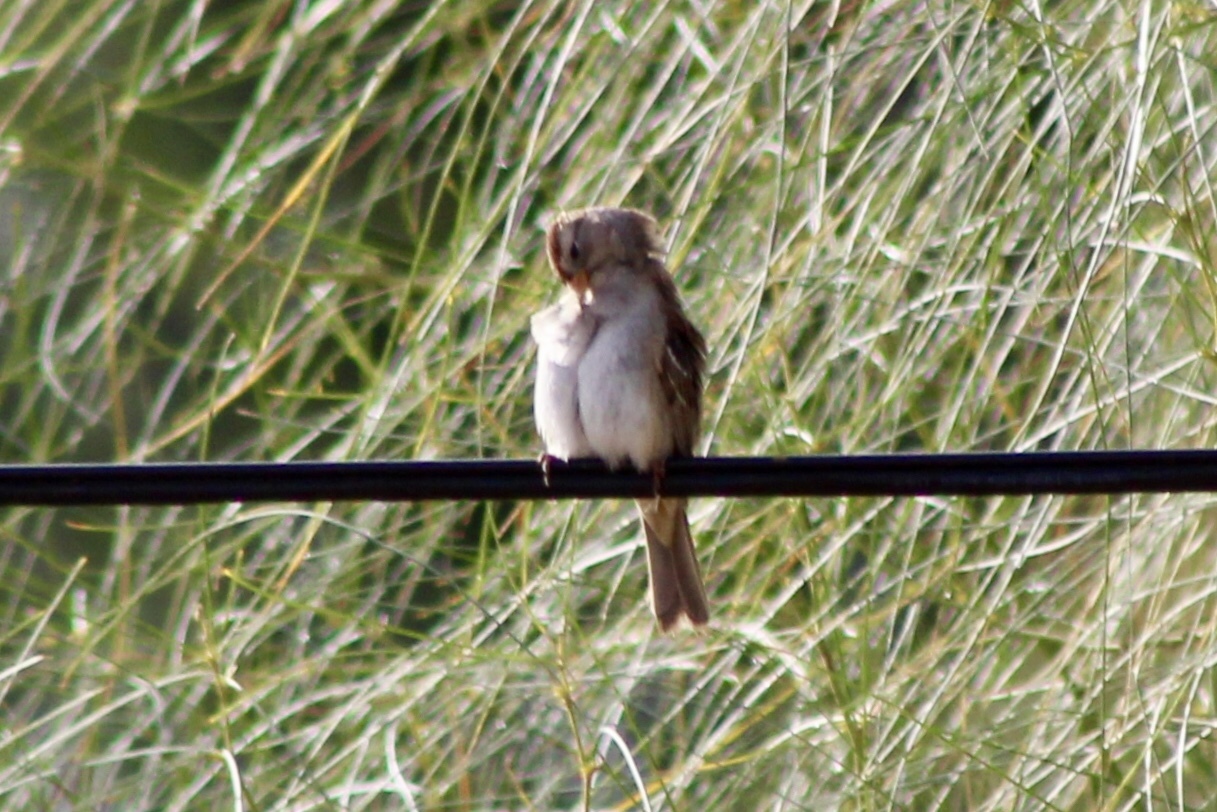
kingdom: Animalia
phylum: Chordata
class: Aves
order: Passeriformes
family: Passerellidae
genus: Zonotrichia
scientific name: Zonotrichia leucophrys
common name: White-crowned sparrow
